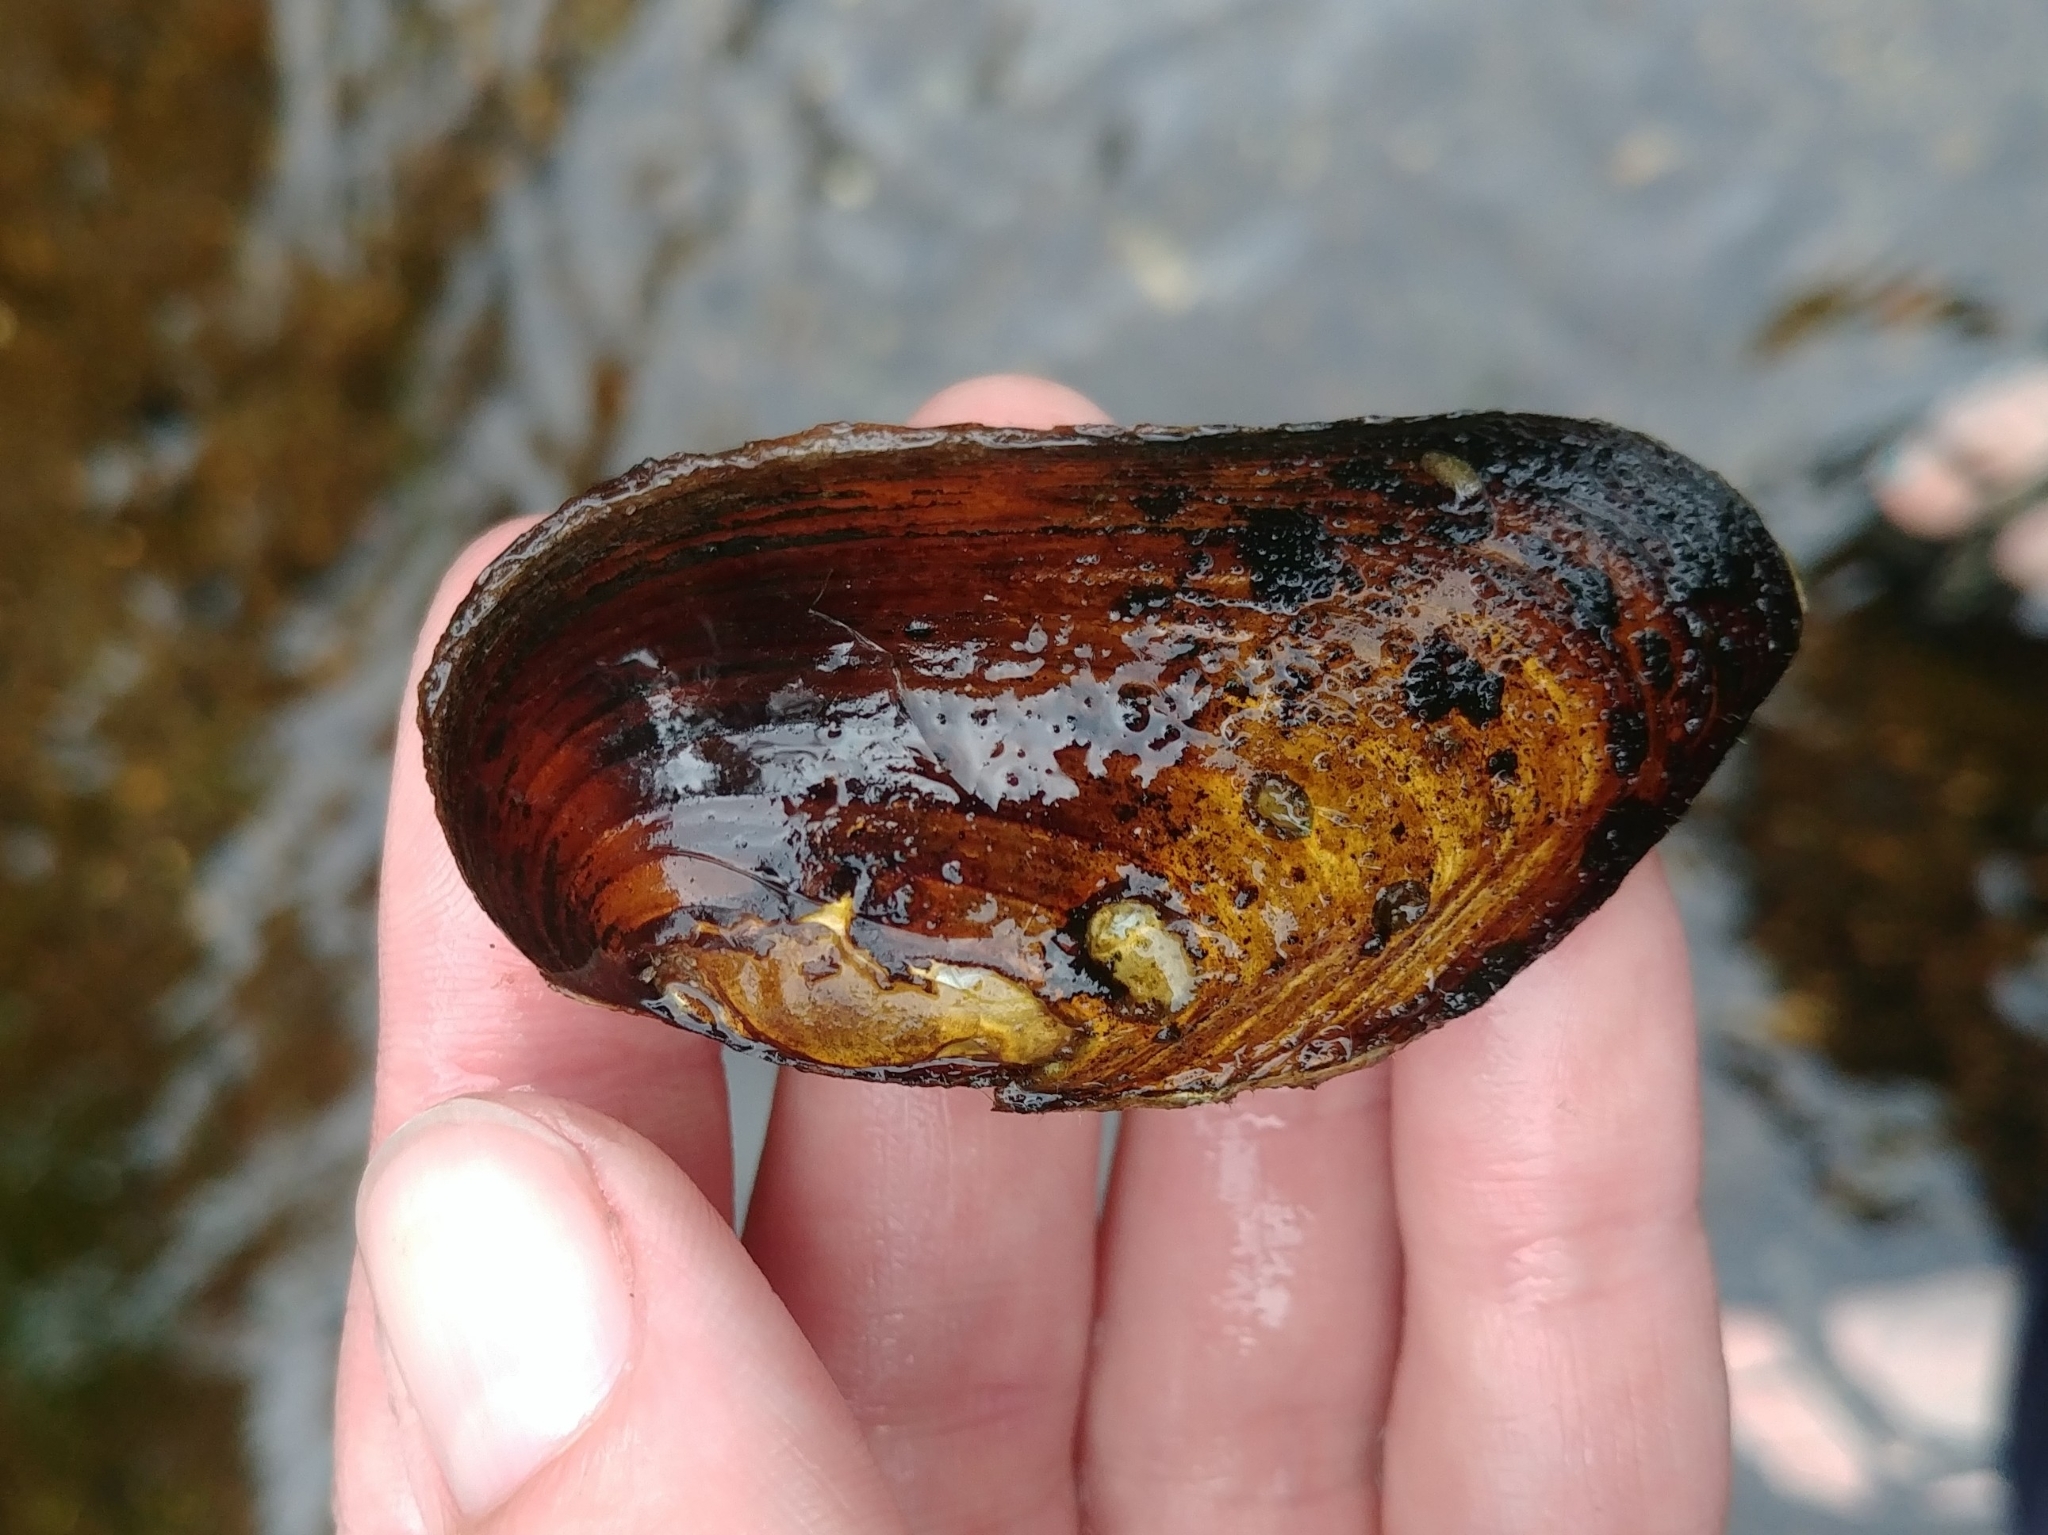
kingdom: Animalia
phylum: Mollusca
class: Bivalvia
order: Unionida
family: Margaritiferidae
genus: Margaritifera
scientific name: Margaritifera margaritifera
